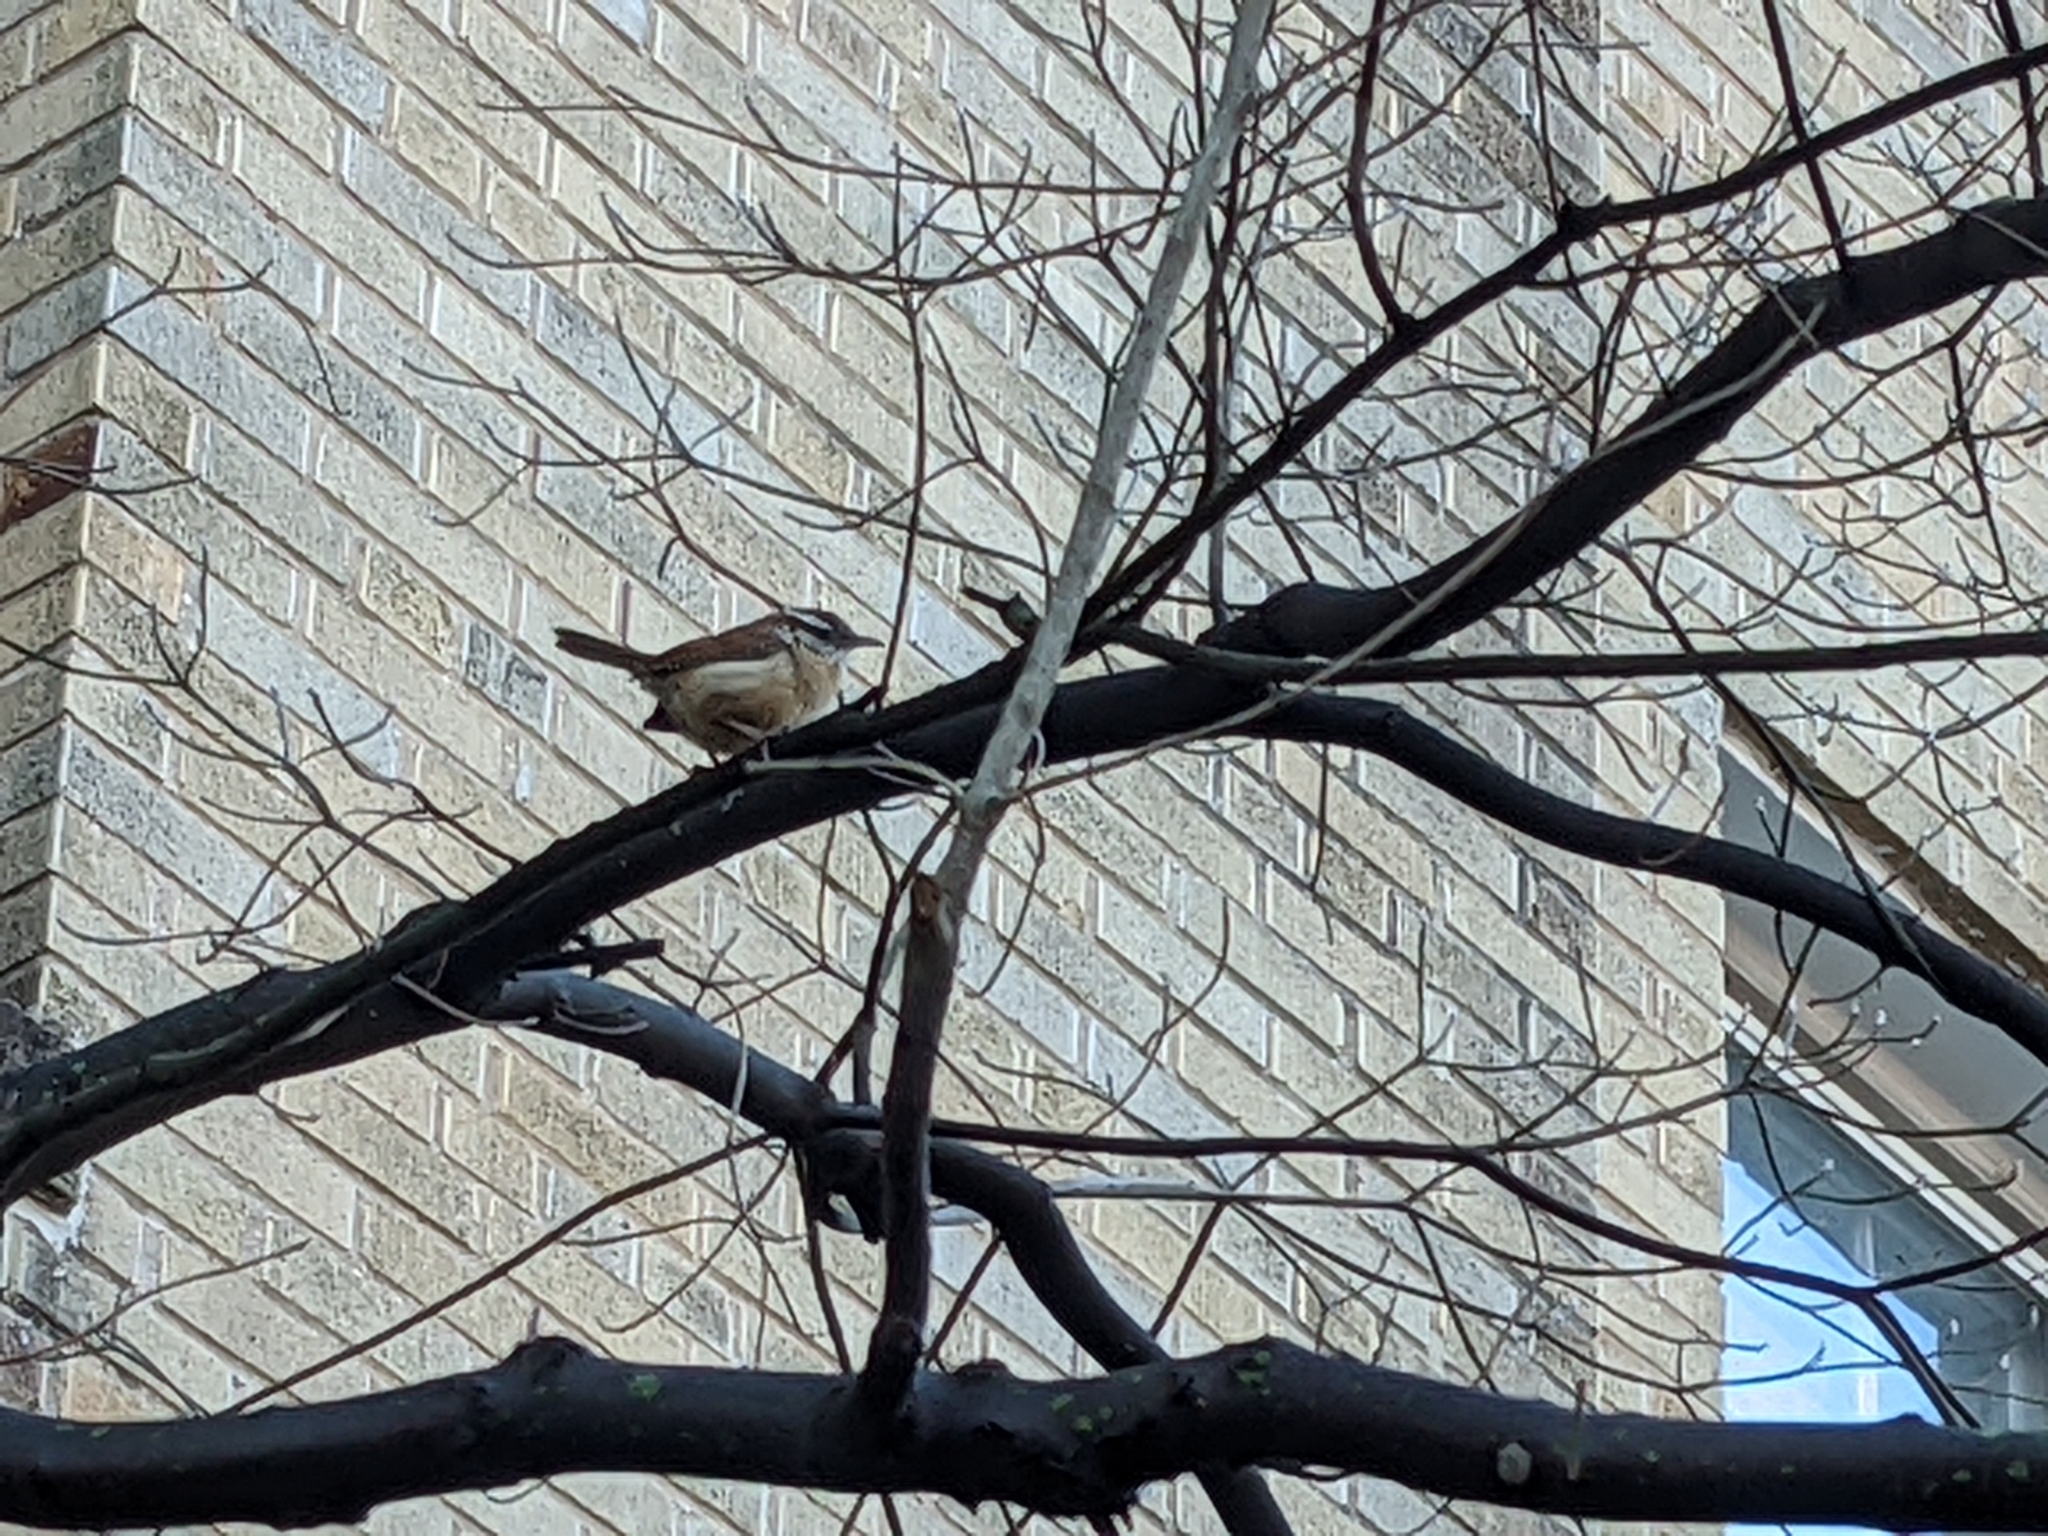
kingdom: Animalia
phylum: Chordata
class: Aves
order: Passeriformes
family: Troglodytidae
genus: Thryothorus
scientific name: Thryothorus ludovicianus
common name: Carolina wren
